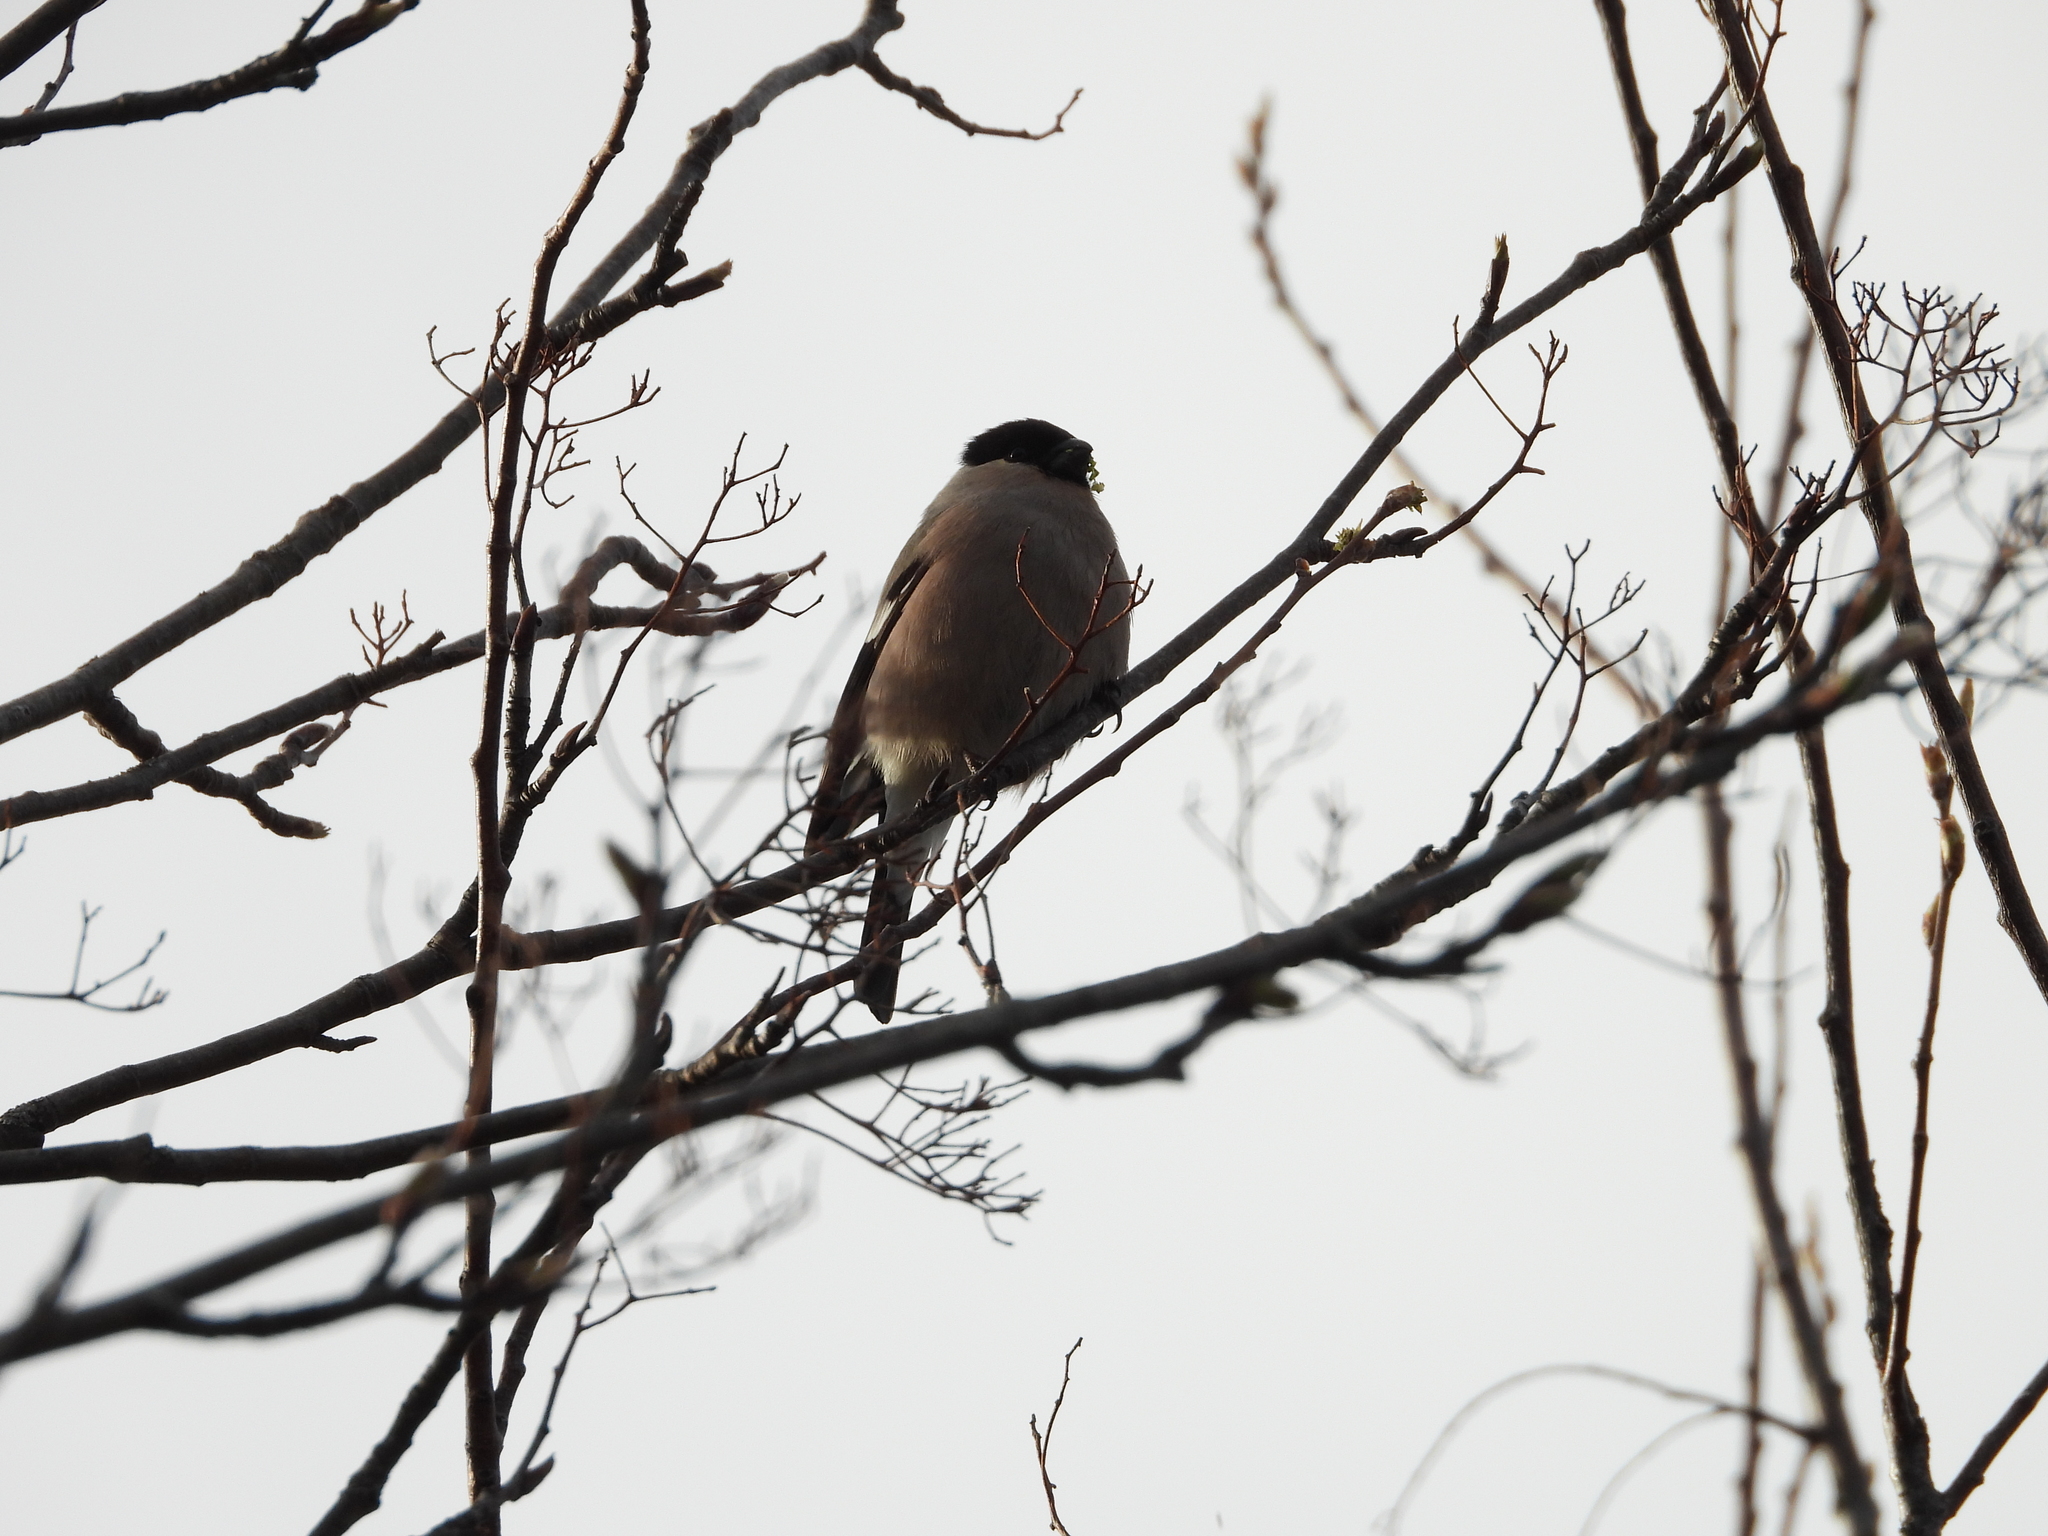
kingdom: Animalia
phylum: Chordata
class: Aves
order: Passeriformes
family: Fringillidae
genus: Pyrrhula
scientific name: Pyrrhula pyrrhula
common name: Eurasian bullfinch
